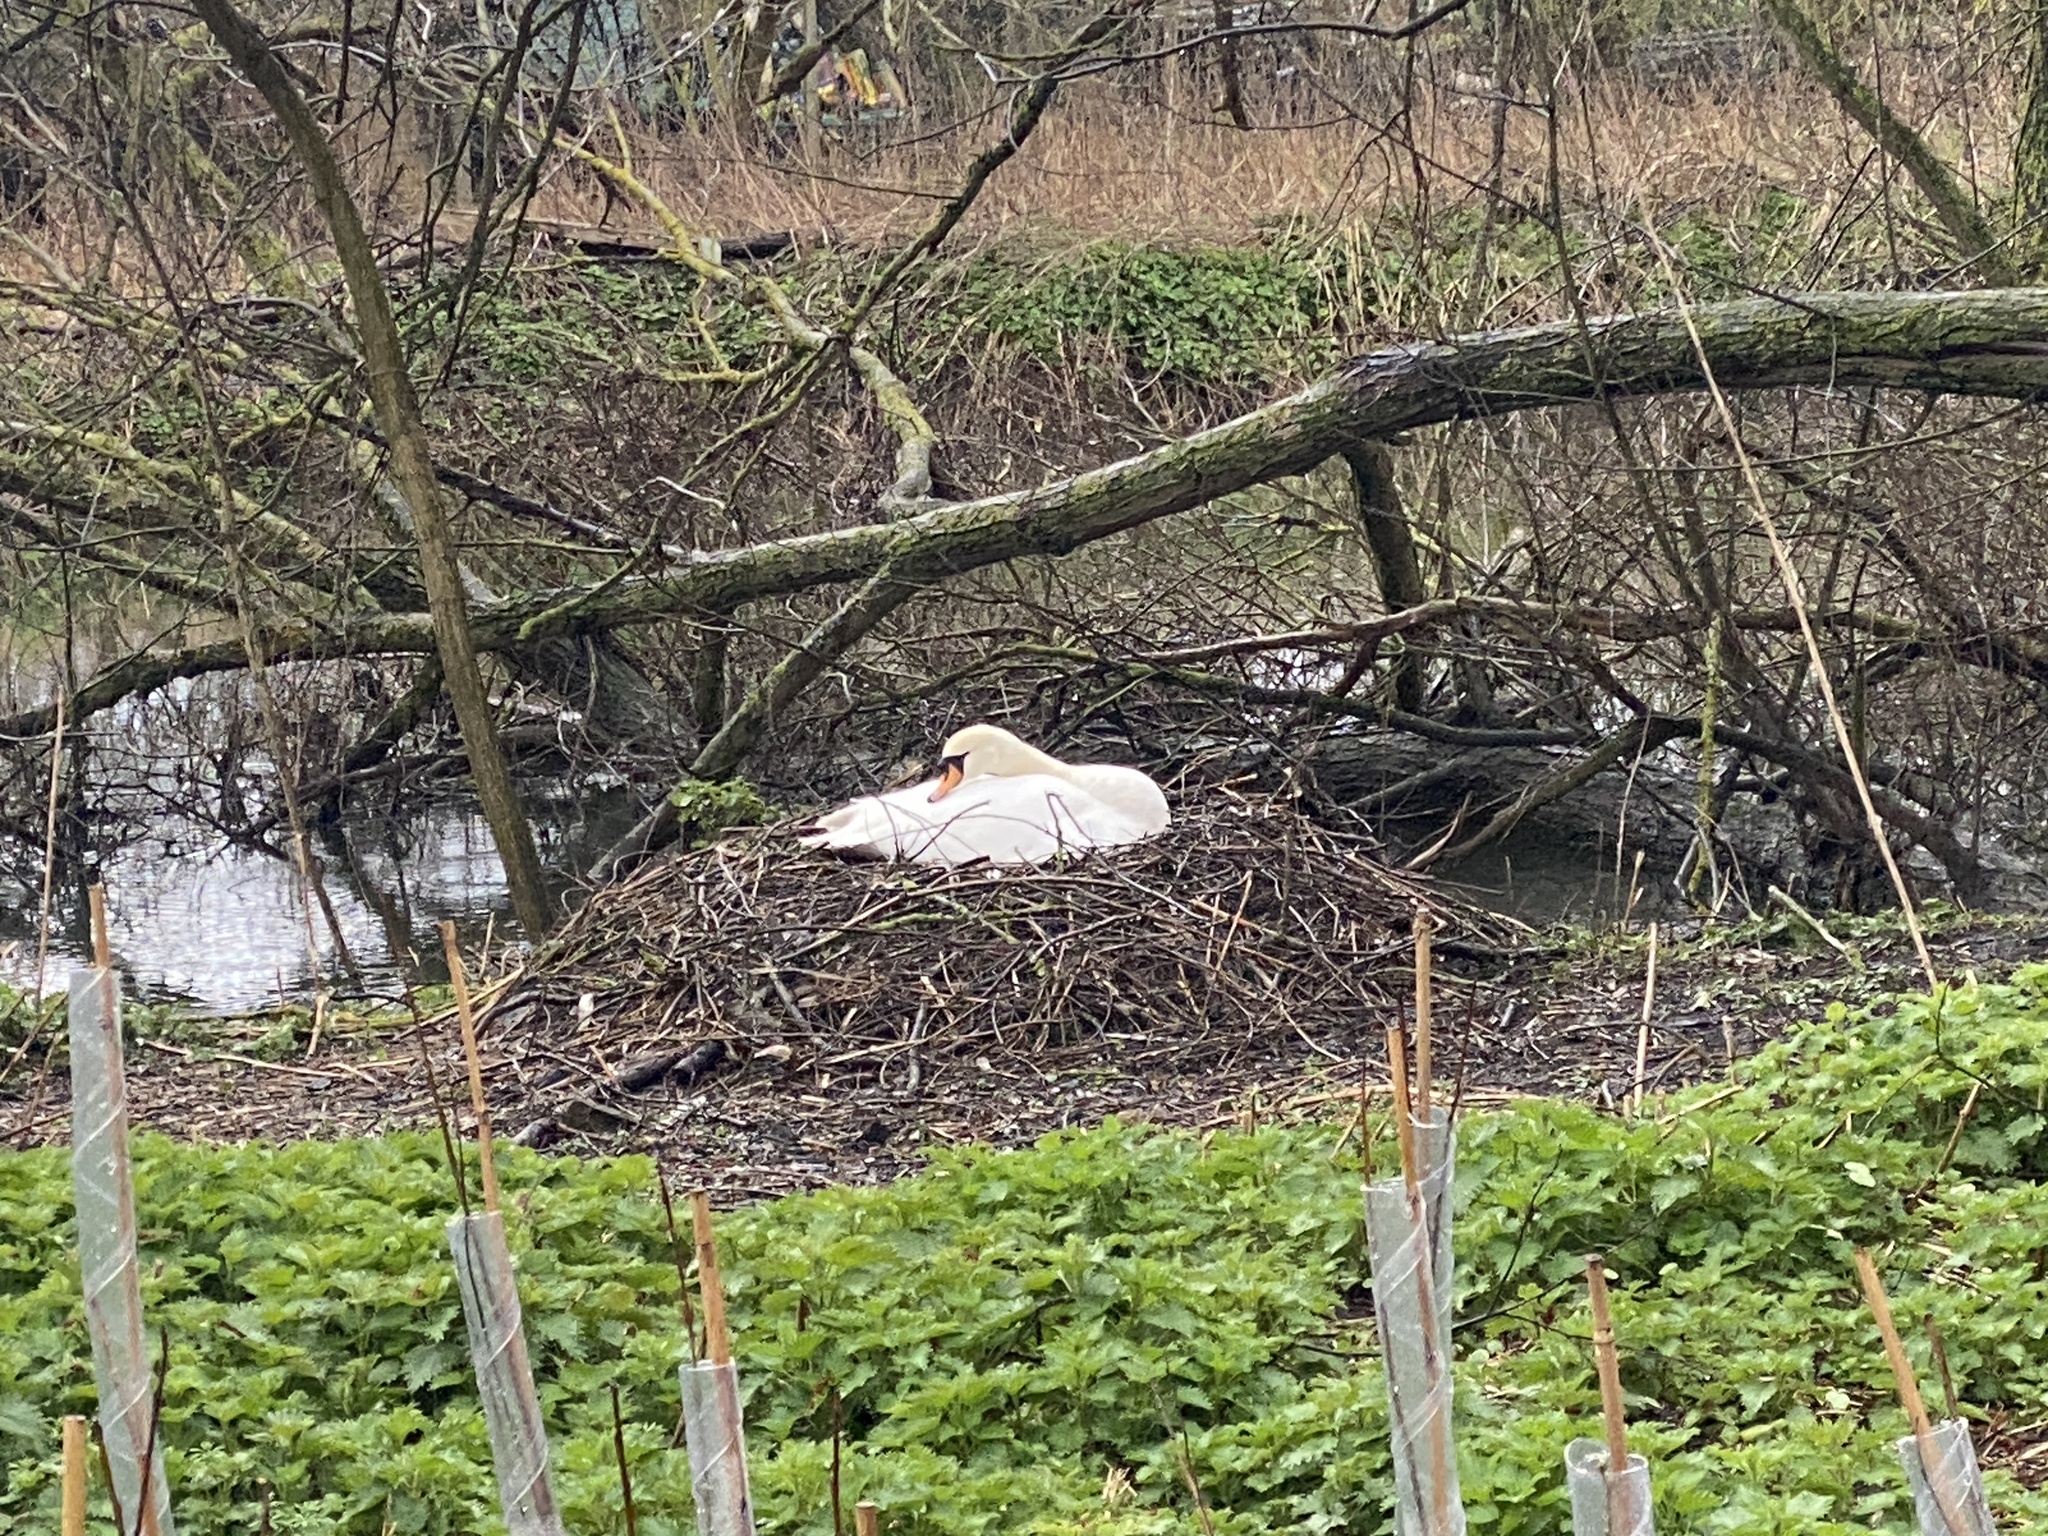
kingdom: Animalia
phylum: Chordata
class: Aves
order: Anseriformes
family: Anatidae
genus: Cygnus
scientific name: Cygnus olor
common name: Mute swan
